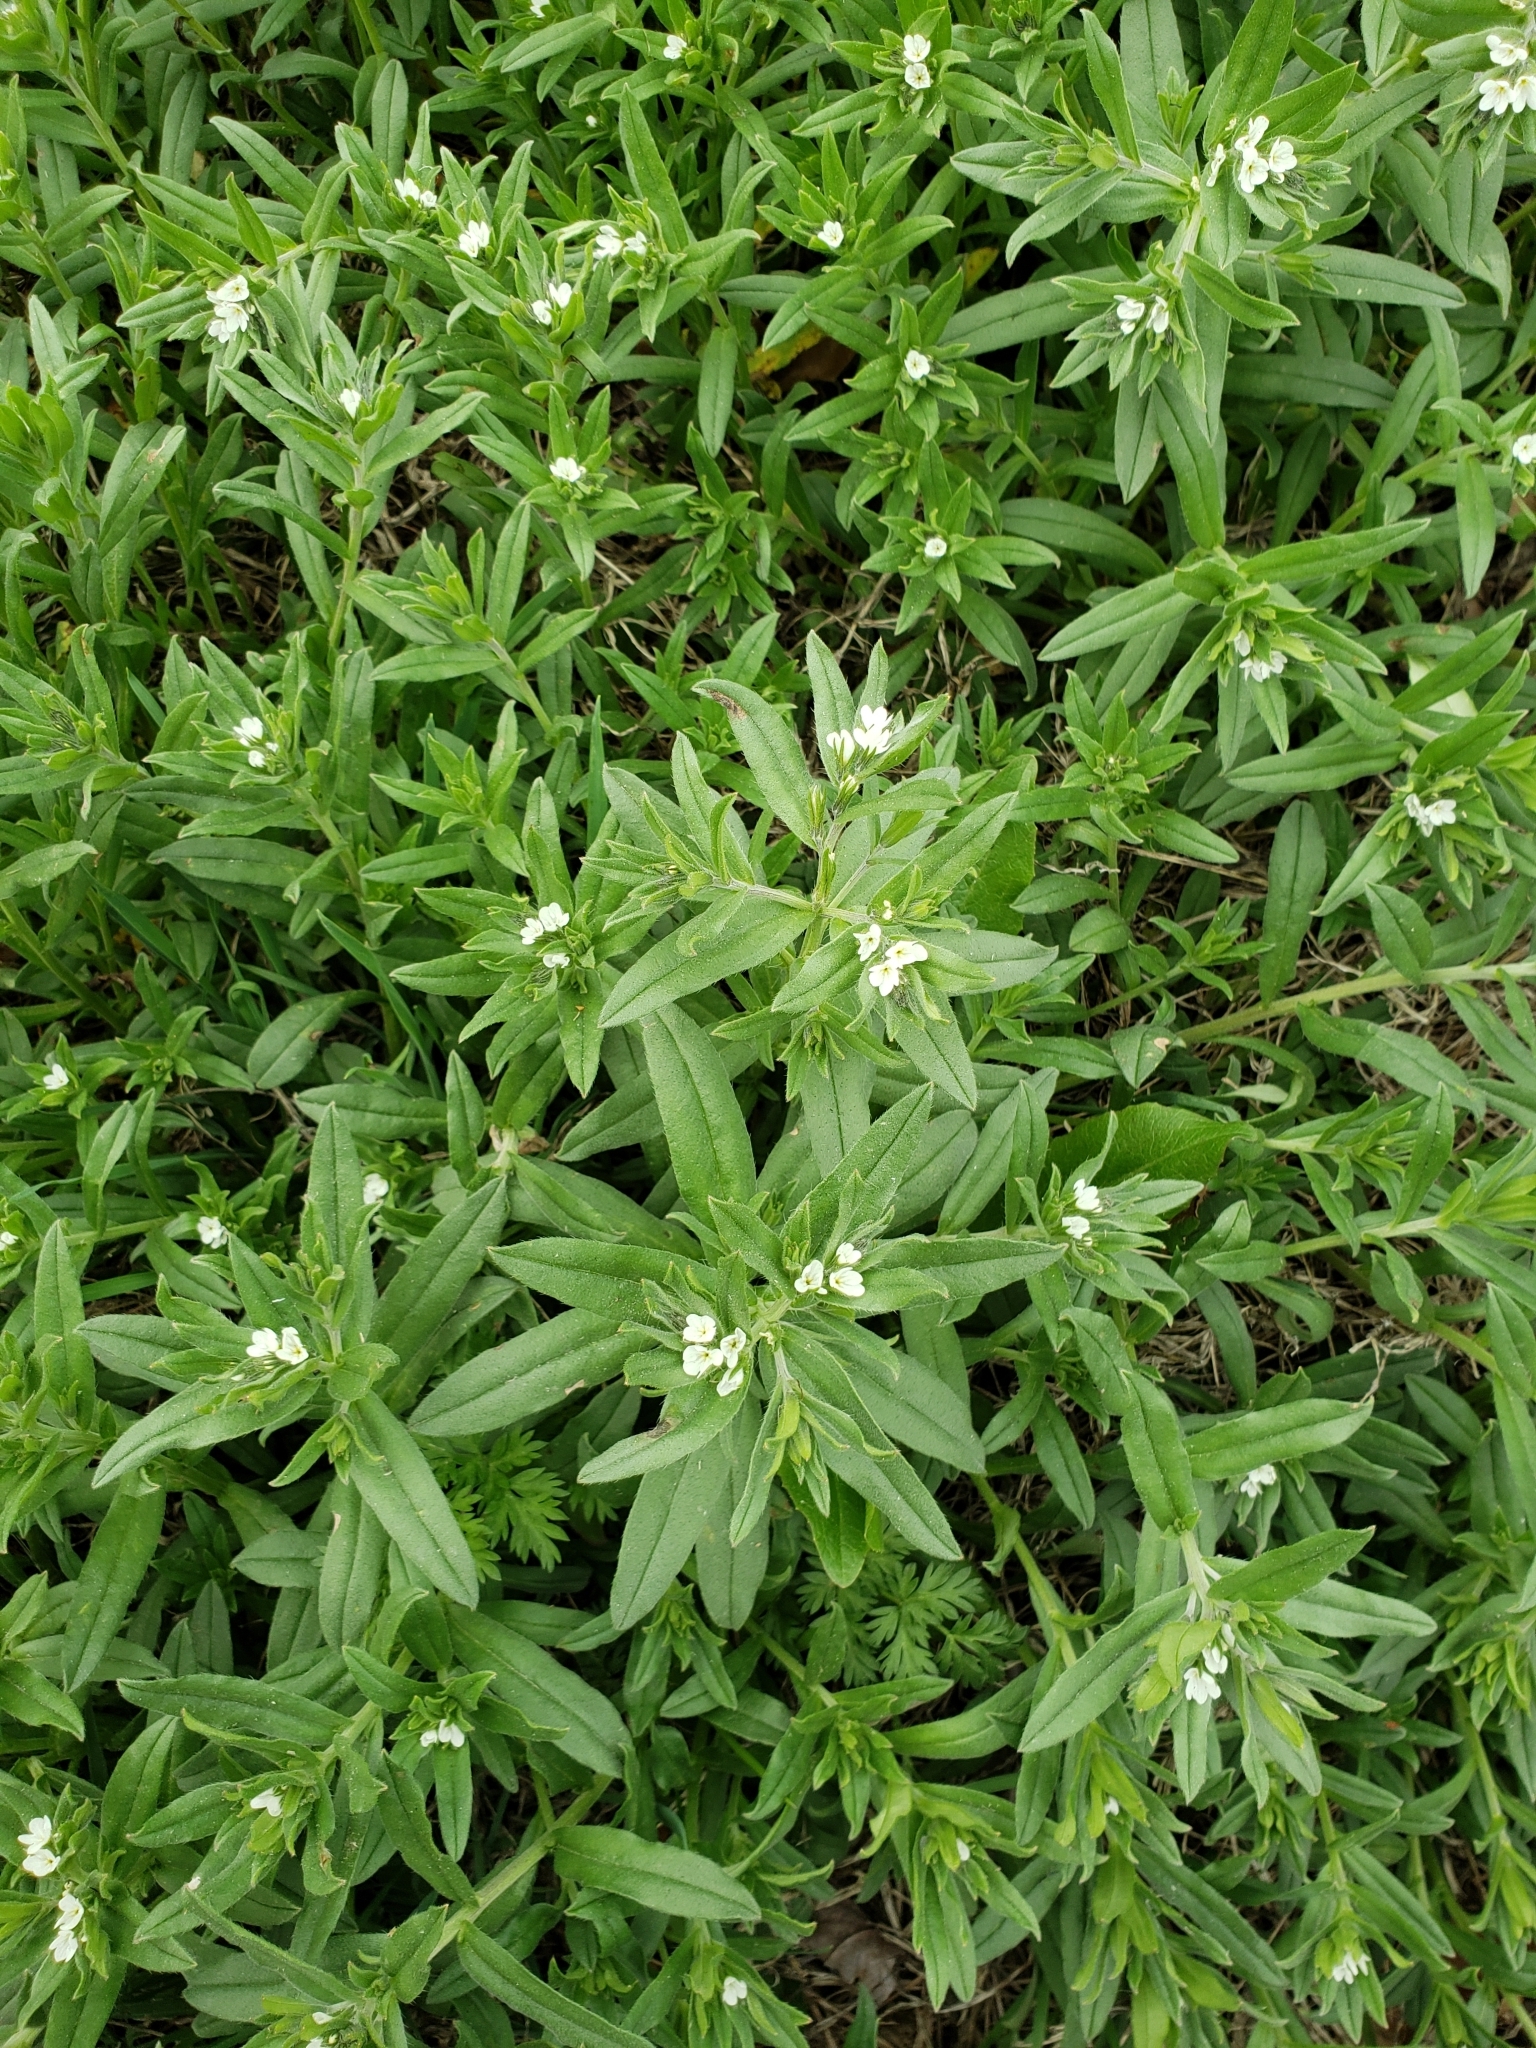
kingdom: Plantae
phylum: Tracheophyta
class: Magnoliopsida
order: Boraginales
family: Boraginaceae
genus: Buglossoides
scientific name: Buglossoides arvensis
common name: Corn gromwell
